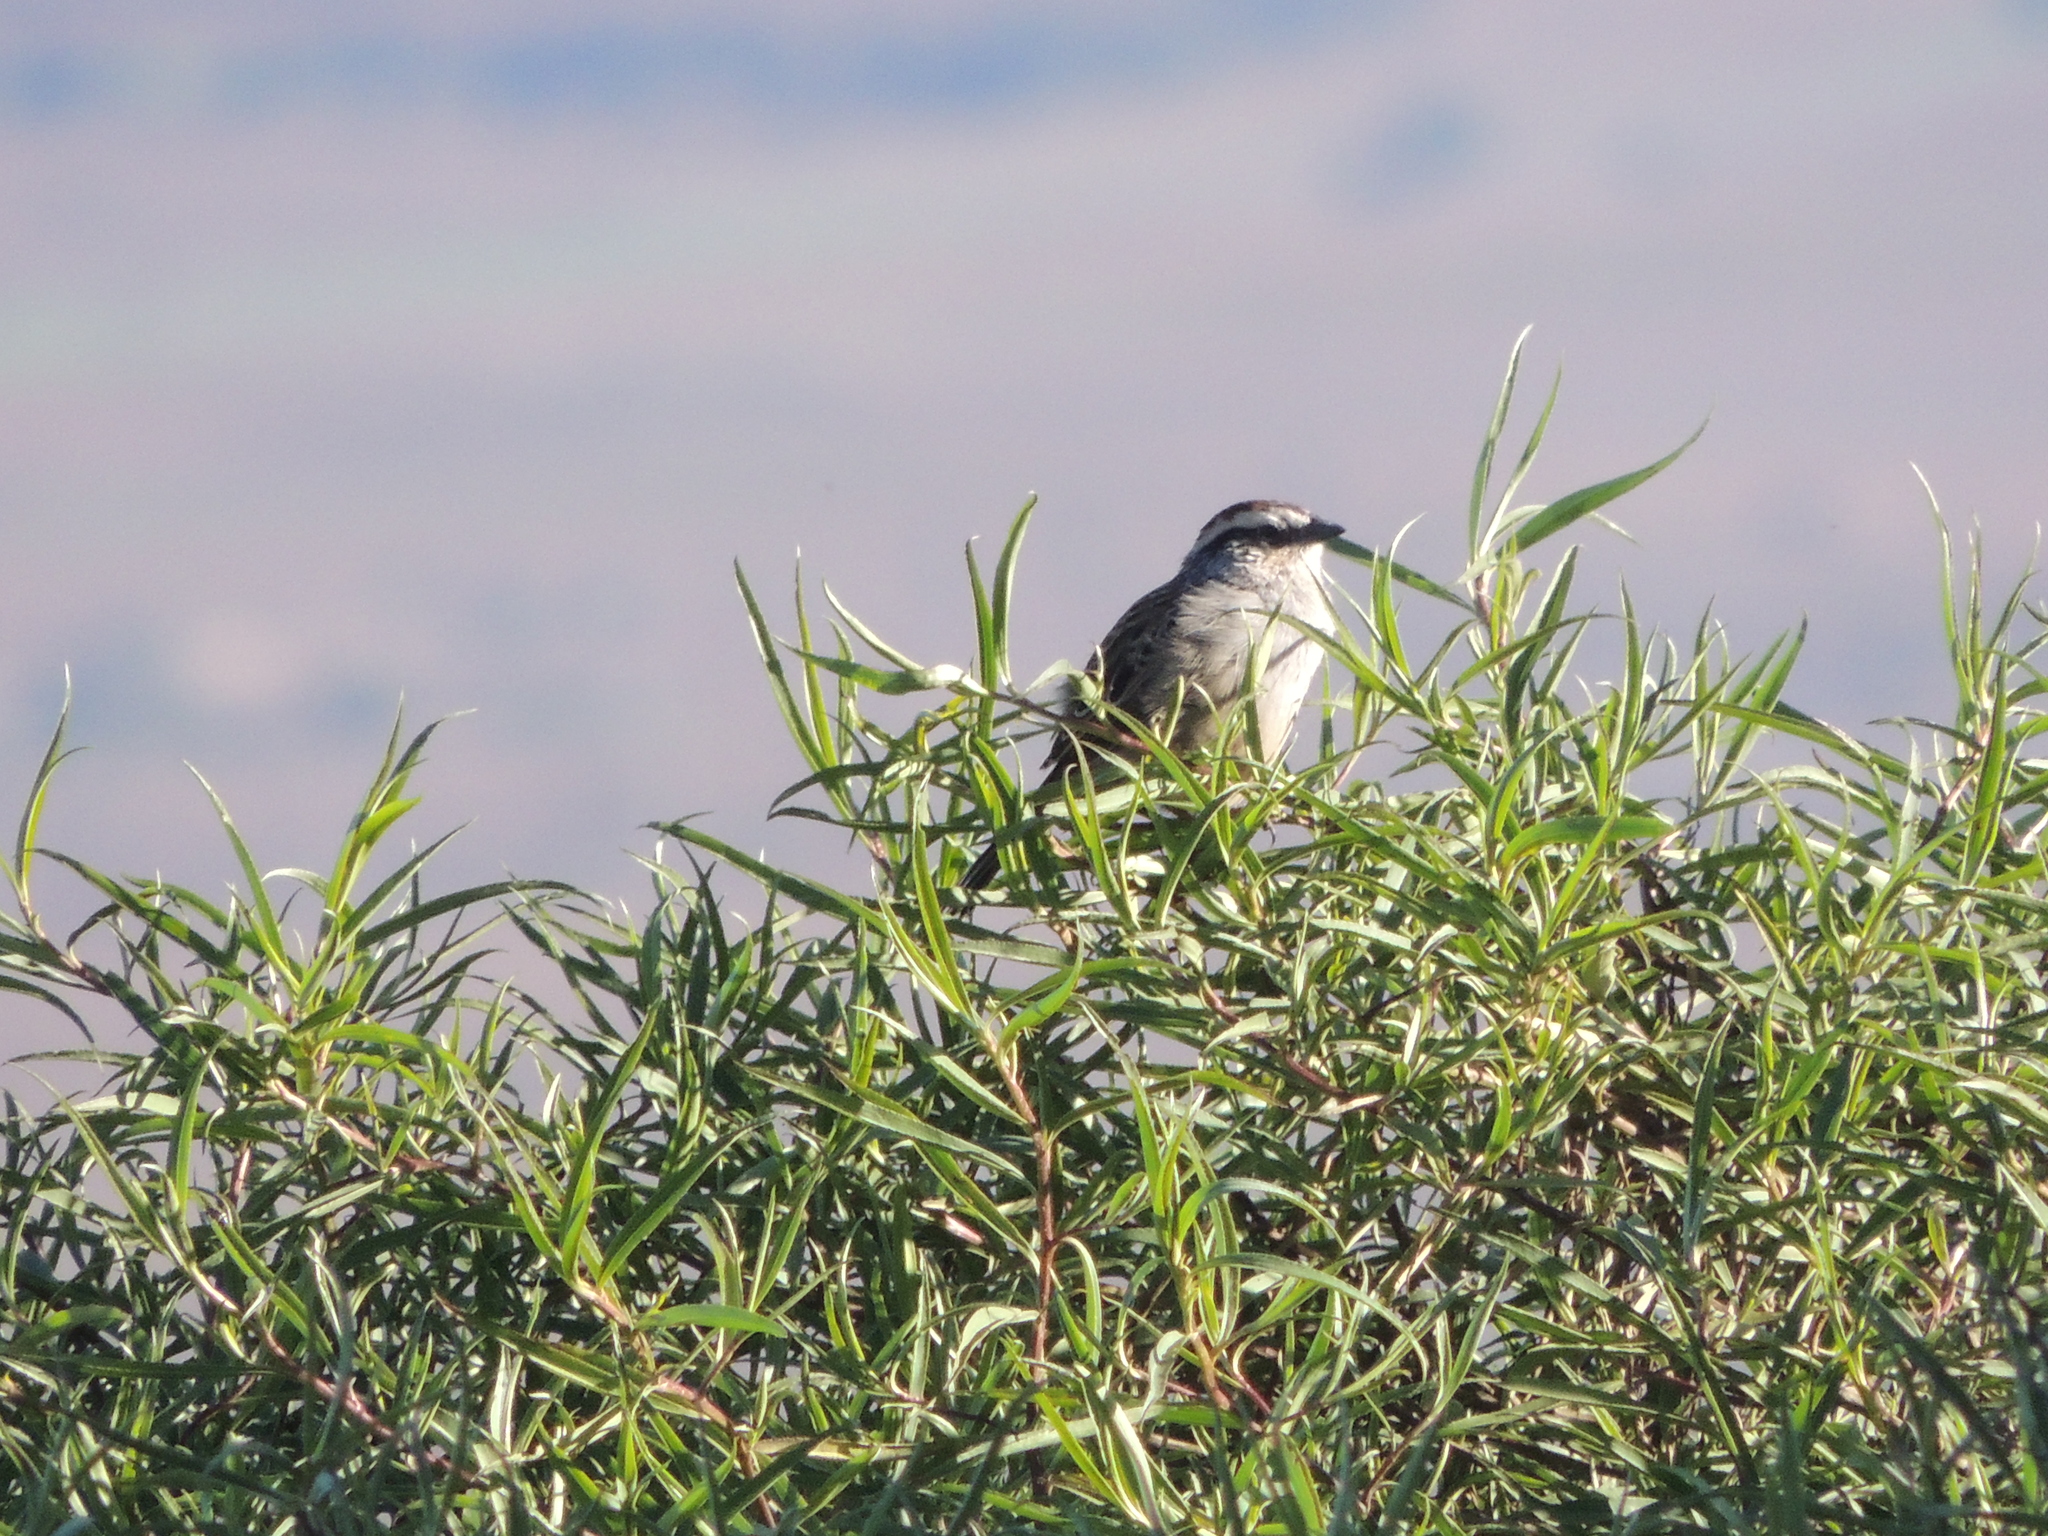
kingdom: Animalia
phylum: Chordata
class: Aves
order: Passeriformes
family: Passerellidae
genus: Oriturus
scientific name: Oriturus superciliosus
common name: Striped sparrow
